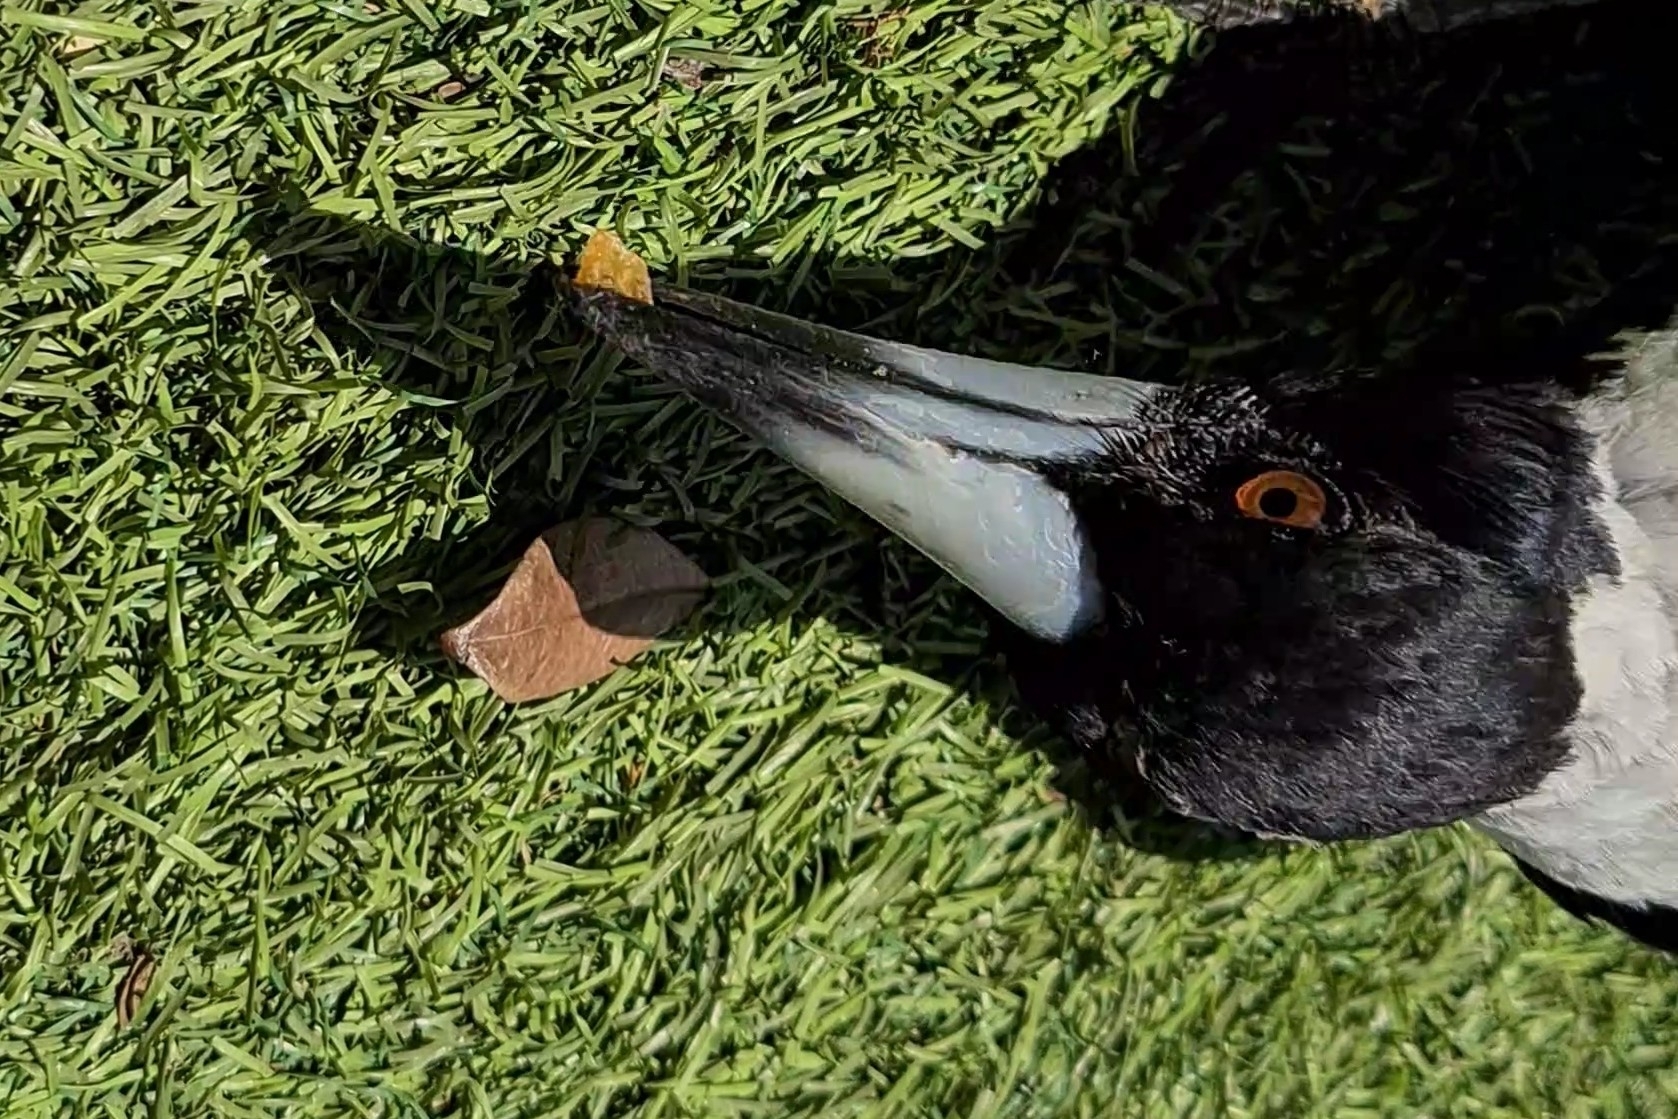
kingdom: Animalia
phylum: Chordata
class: Aves
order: Passeriformes
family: Cracticidae
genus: Gymnorhina
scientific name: Gymnorhina tibicen
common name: Australian magpie
